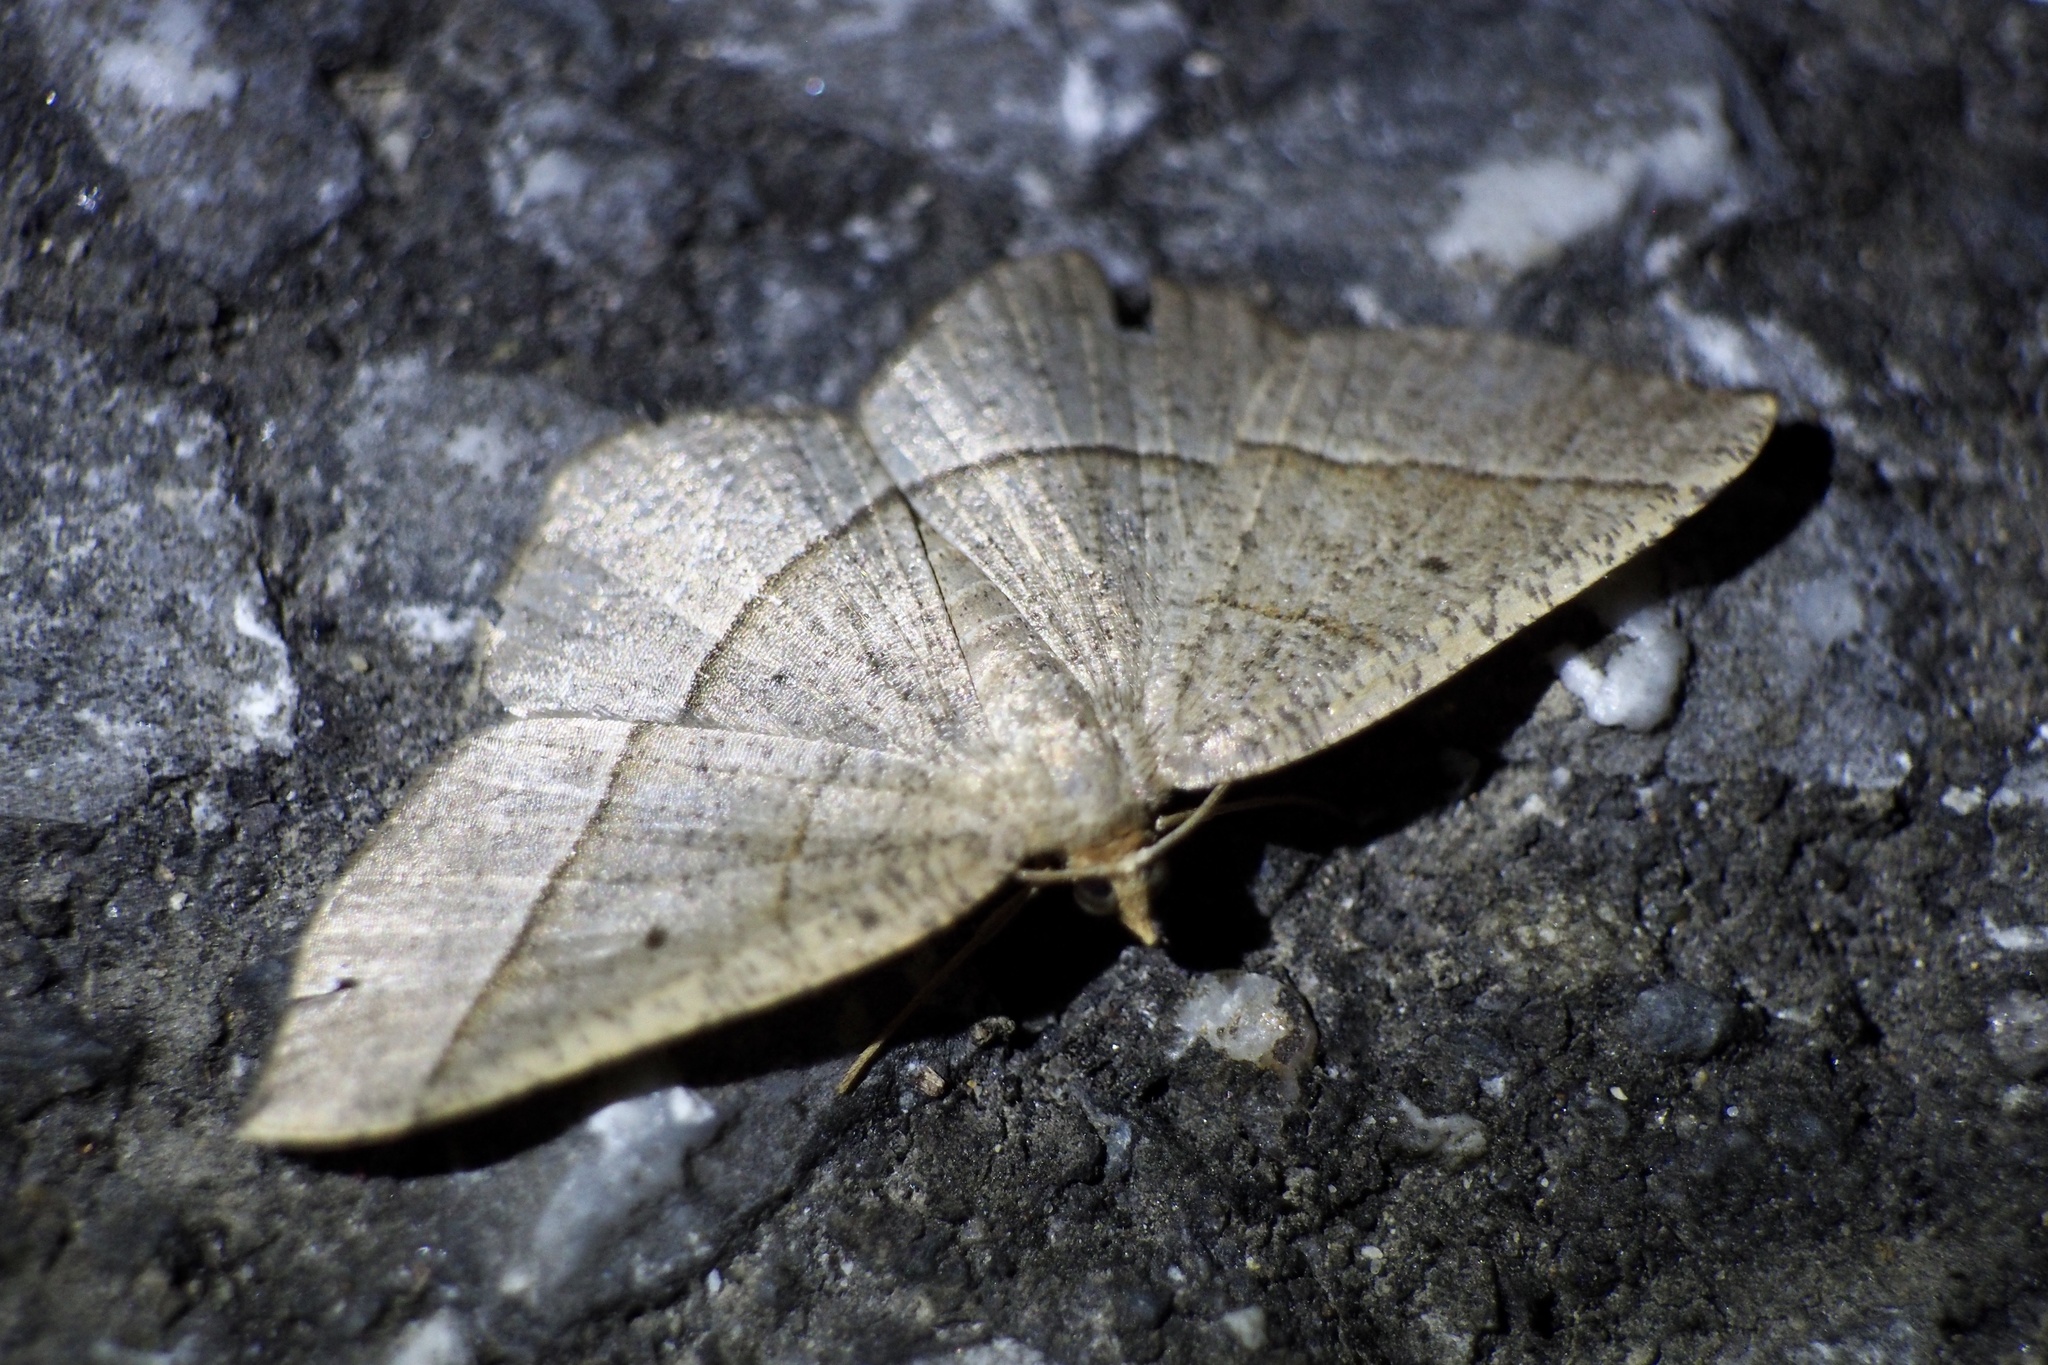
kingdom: Animalia
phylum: Arthropoda
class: Insecta
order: Lepidoptera
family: Geometridae
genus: Rhynchobapta
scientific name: Rhynchobapta cervinaria
